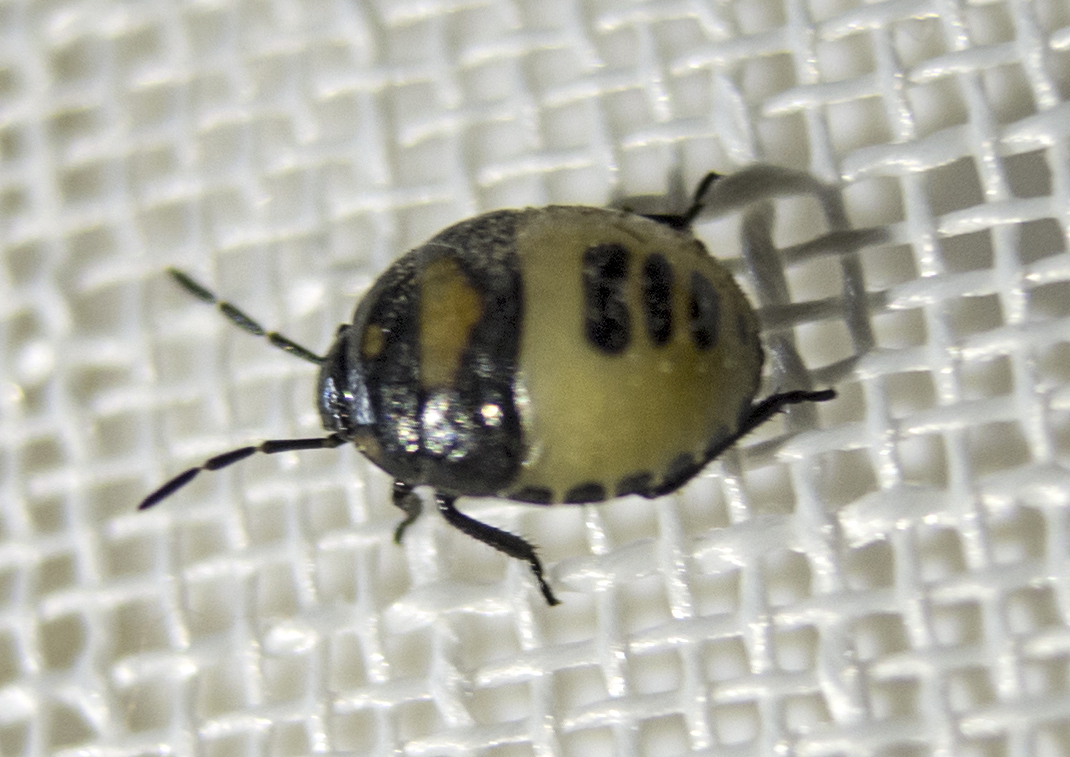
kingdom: Animalia
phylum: Arthropoda
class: Insecta
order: Hemiptera
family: Cydnidae
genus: Tritomegas
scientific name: Tritomegas bicolor
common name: Pied shieldbug
